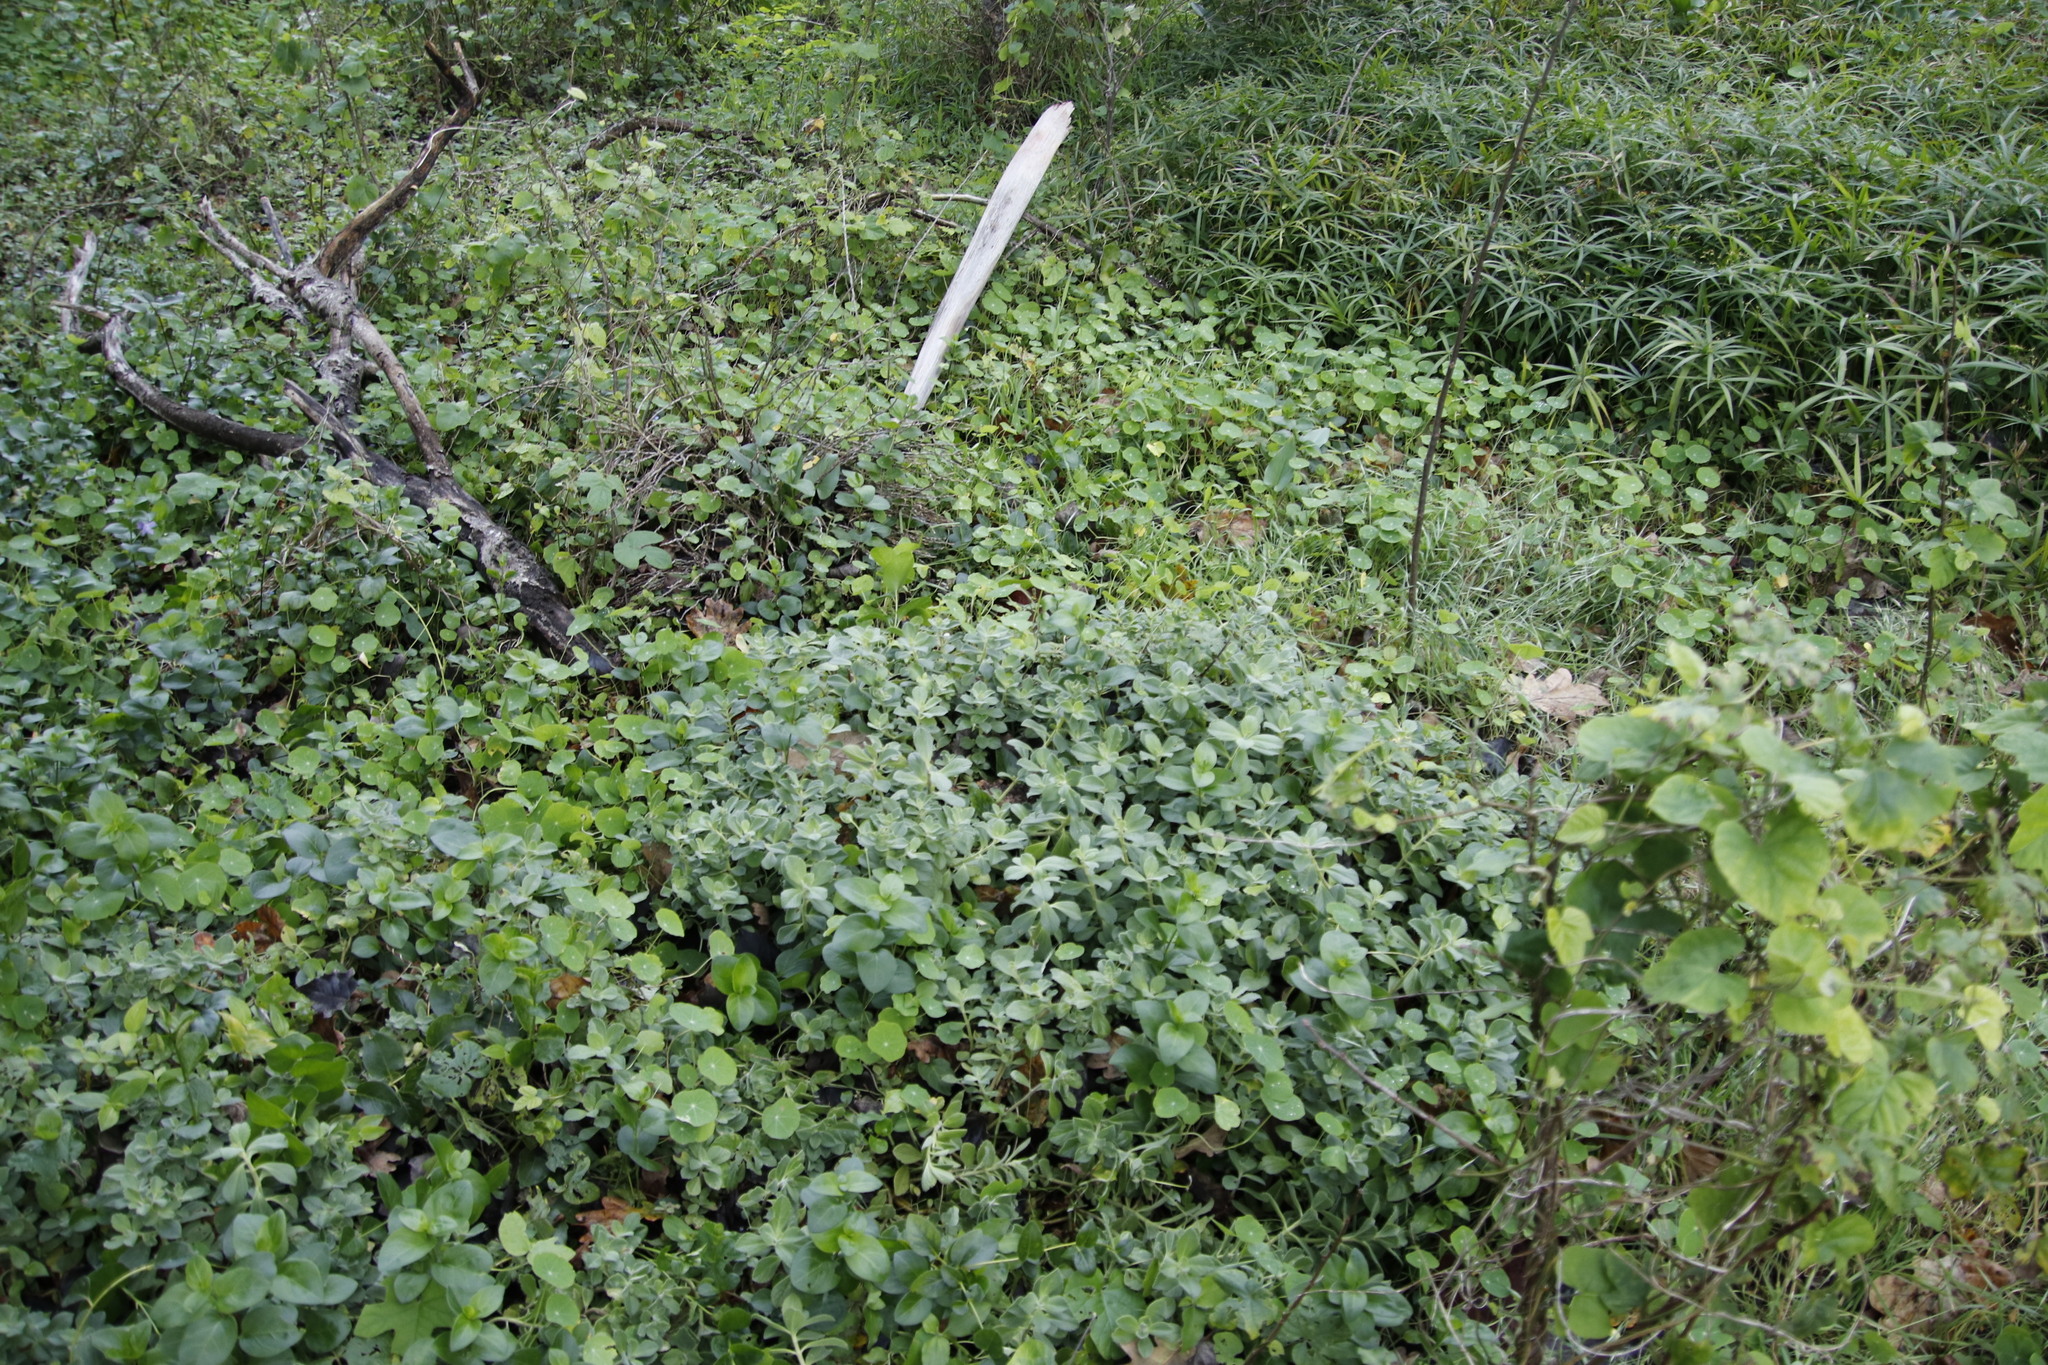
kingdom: Plantae
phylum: Tracheophyta
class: Magnoliopsida
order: Lamiales
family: Lamiaceae
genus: Coleus
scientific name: Coleus neochilus
